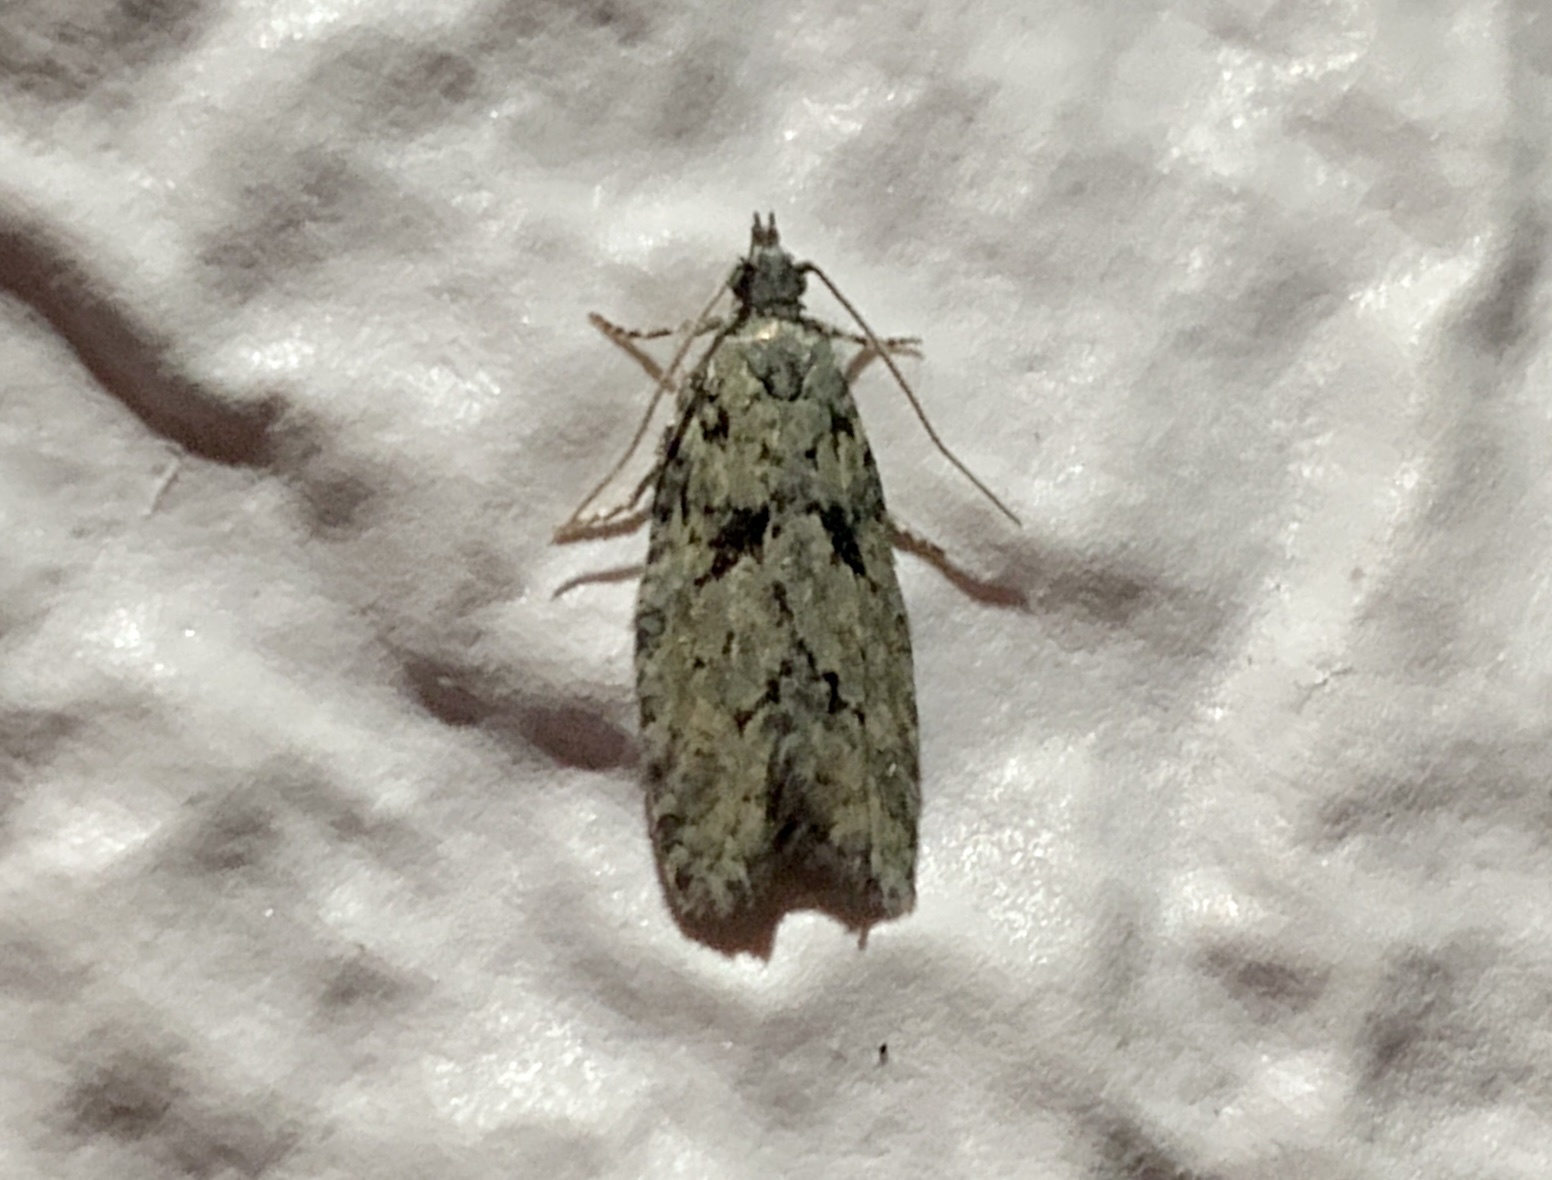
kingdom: Animalia
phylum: Arthropoda
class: Insecta
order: Lepidoptera
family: Tortricidae
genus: Epinotia
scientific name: Epinotia hopkinsana
